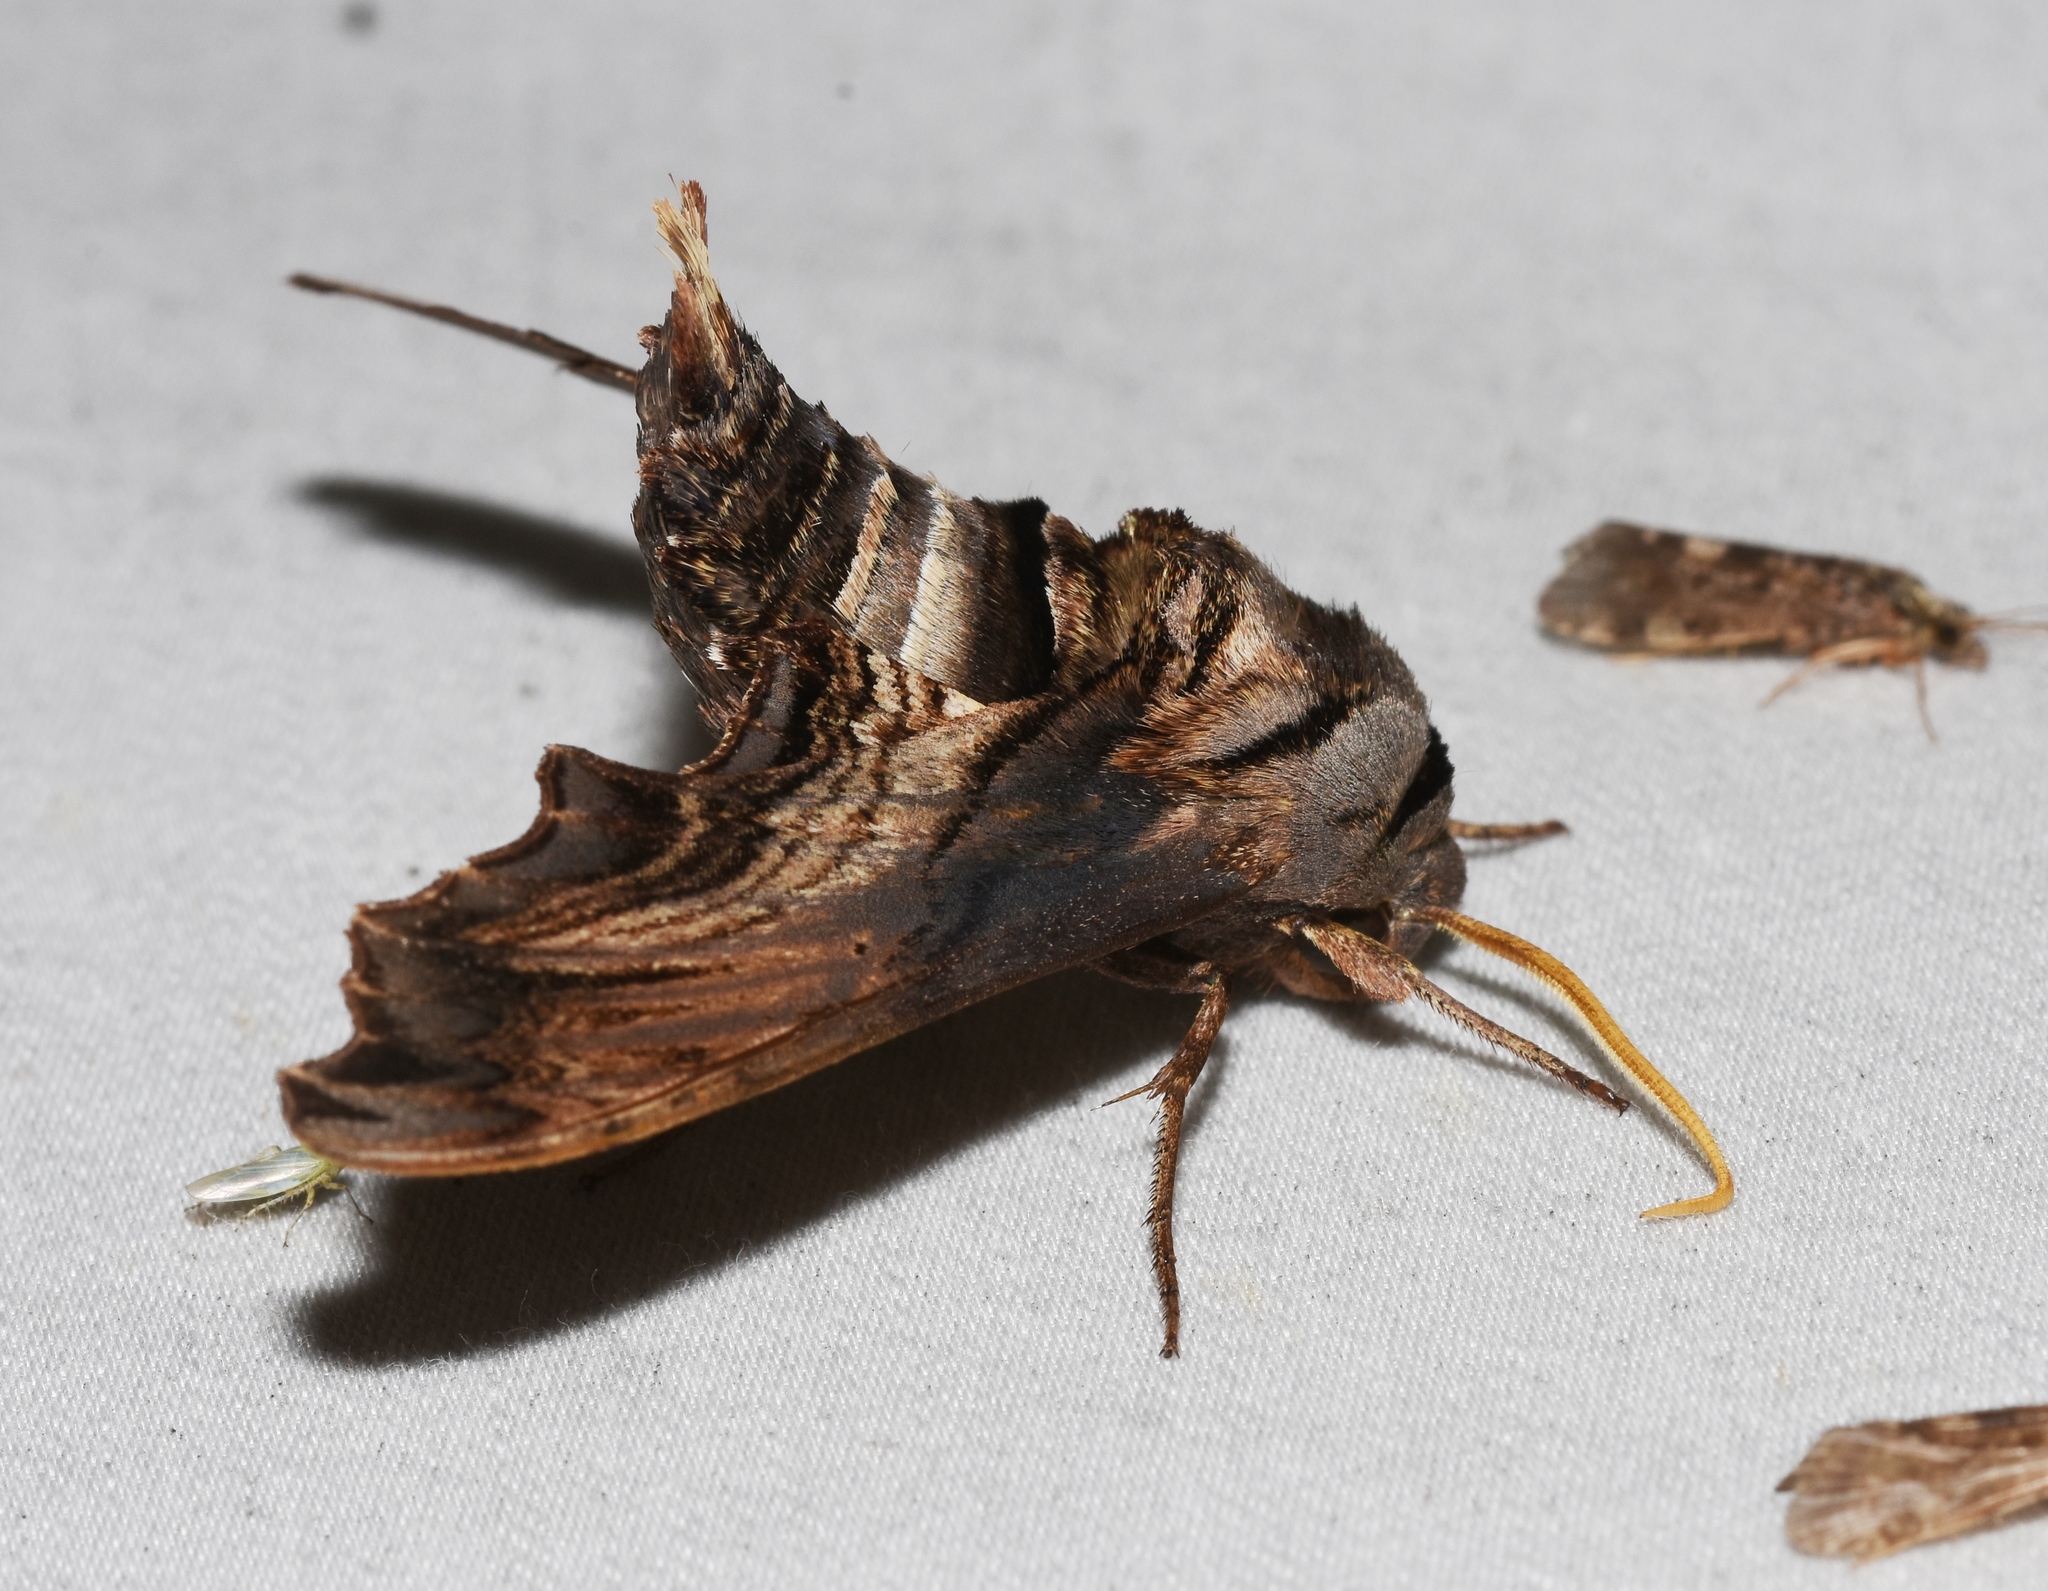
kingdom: Animalia
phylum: Arthropoda
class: Insecta
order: Lepidoptera
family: Sphingidae
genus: Sphecodina
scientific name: Sphecodina abbottii
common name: Abbott's sphinx
